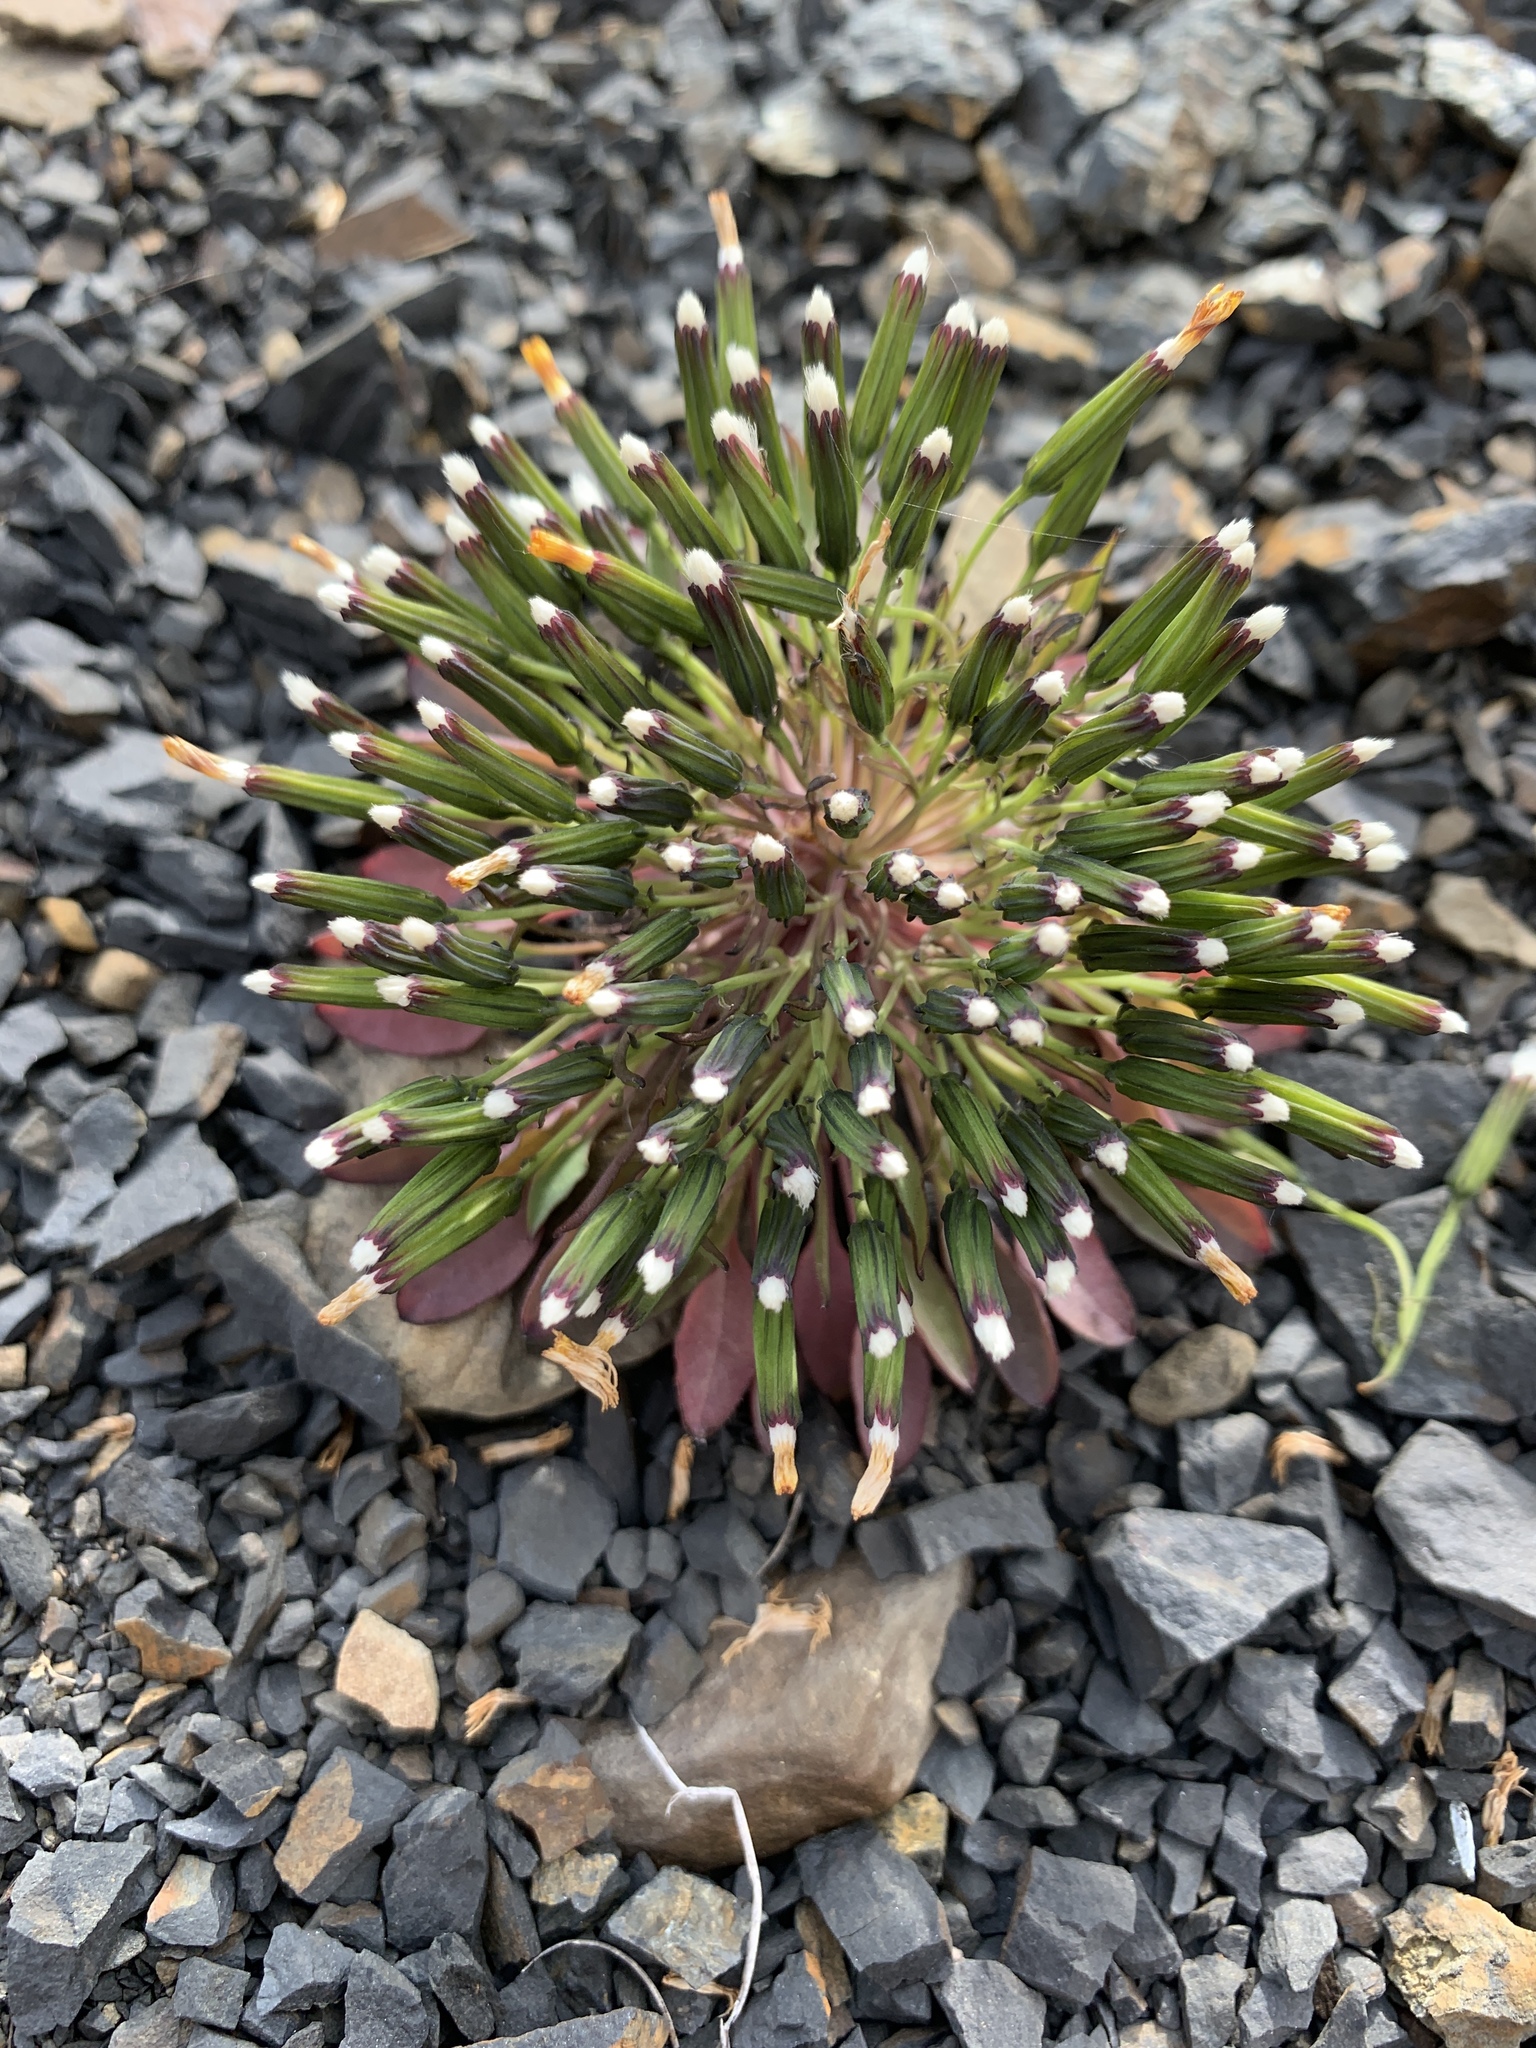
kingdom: Plantae
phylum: Tracheophyta
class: Magnoliopsida
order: Asterales
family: Asteraceae
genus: Askellia
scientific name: Askellia pygmaea
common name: Dwarf alpine hawksbeard
